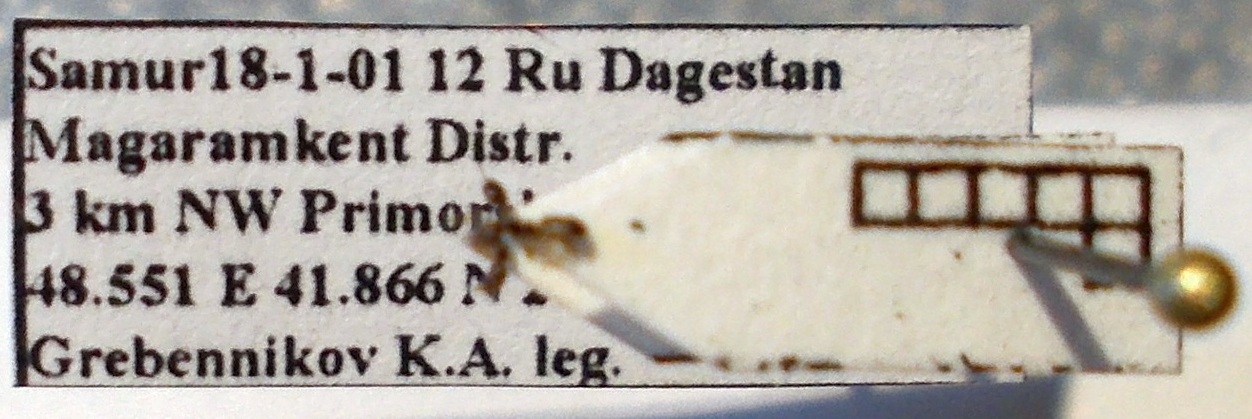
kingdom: Animalia
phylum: Arthropoda
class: Insecta
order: Hymenoptera
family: Formicidae
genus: Cardiocondyla
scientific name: Cardiocondyla stambuloffii
